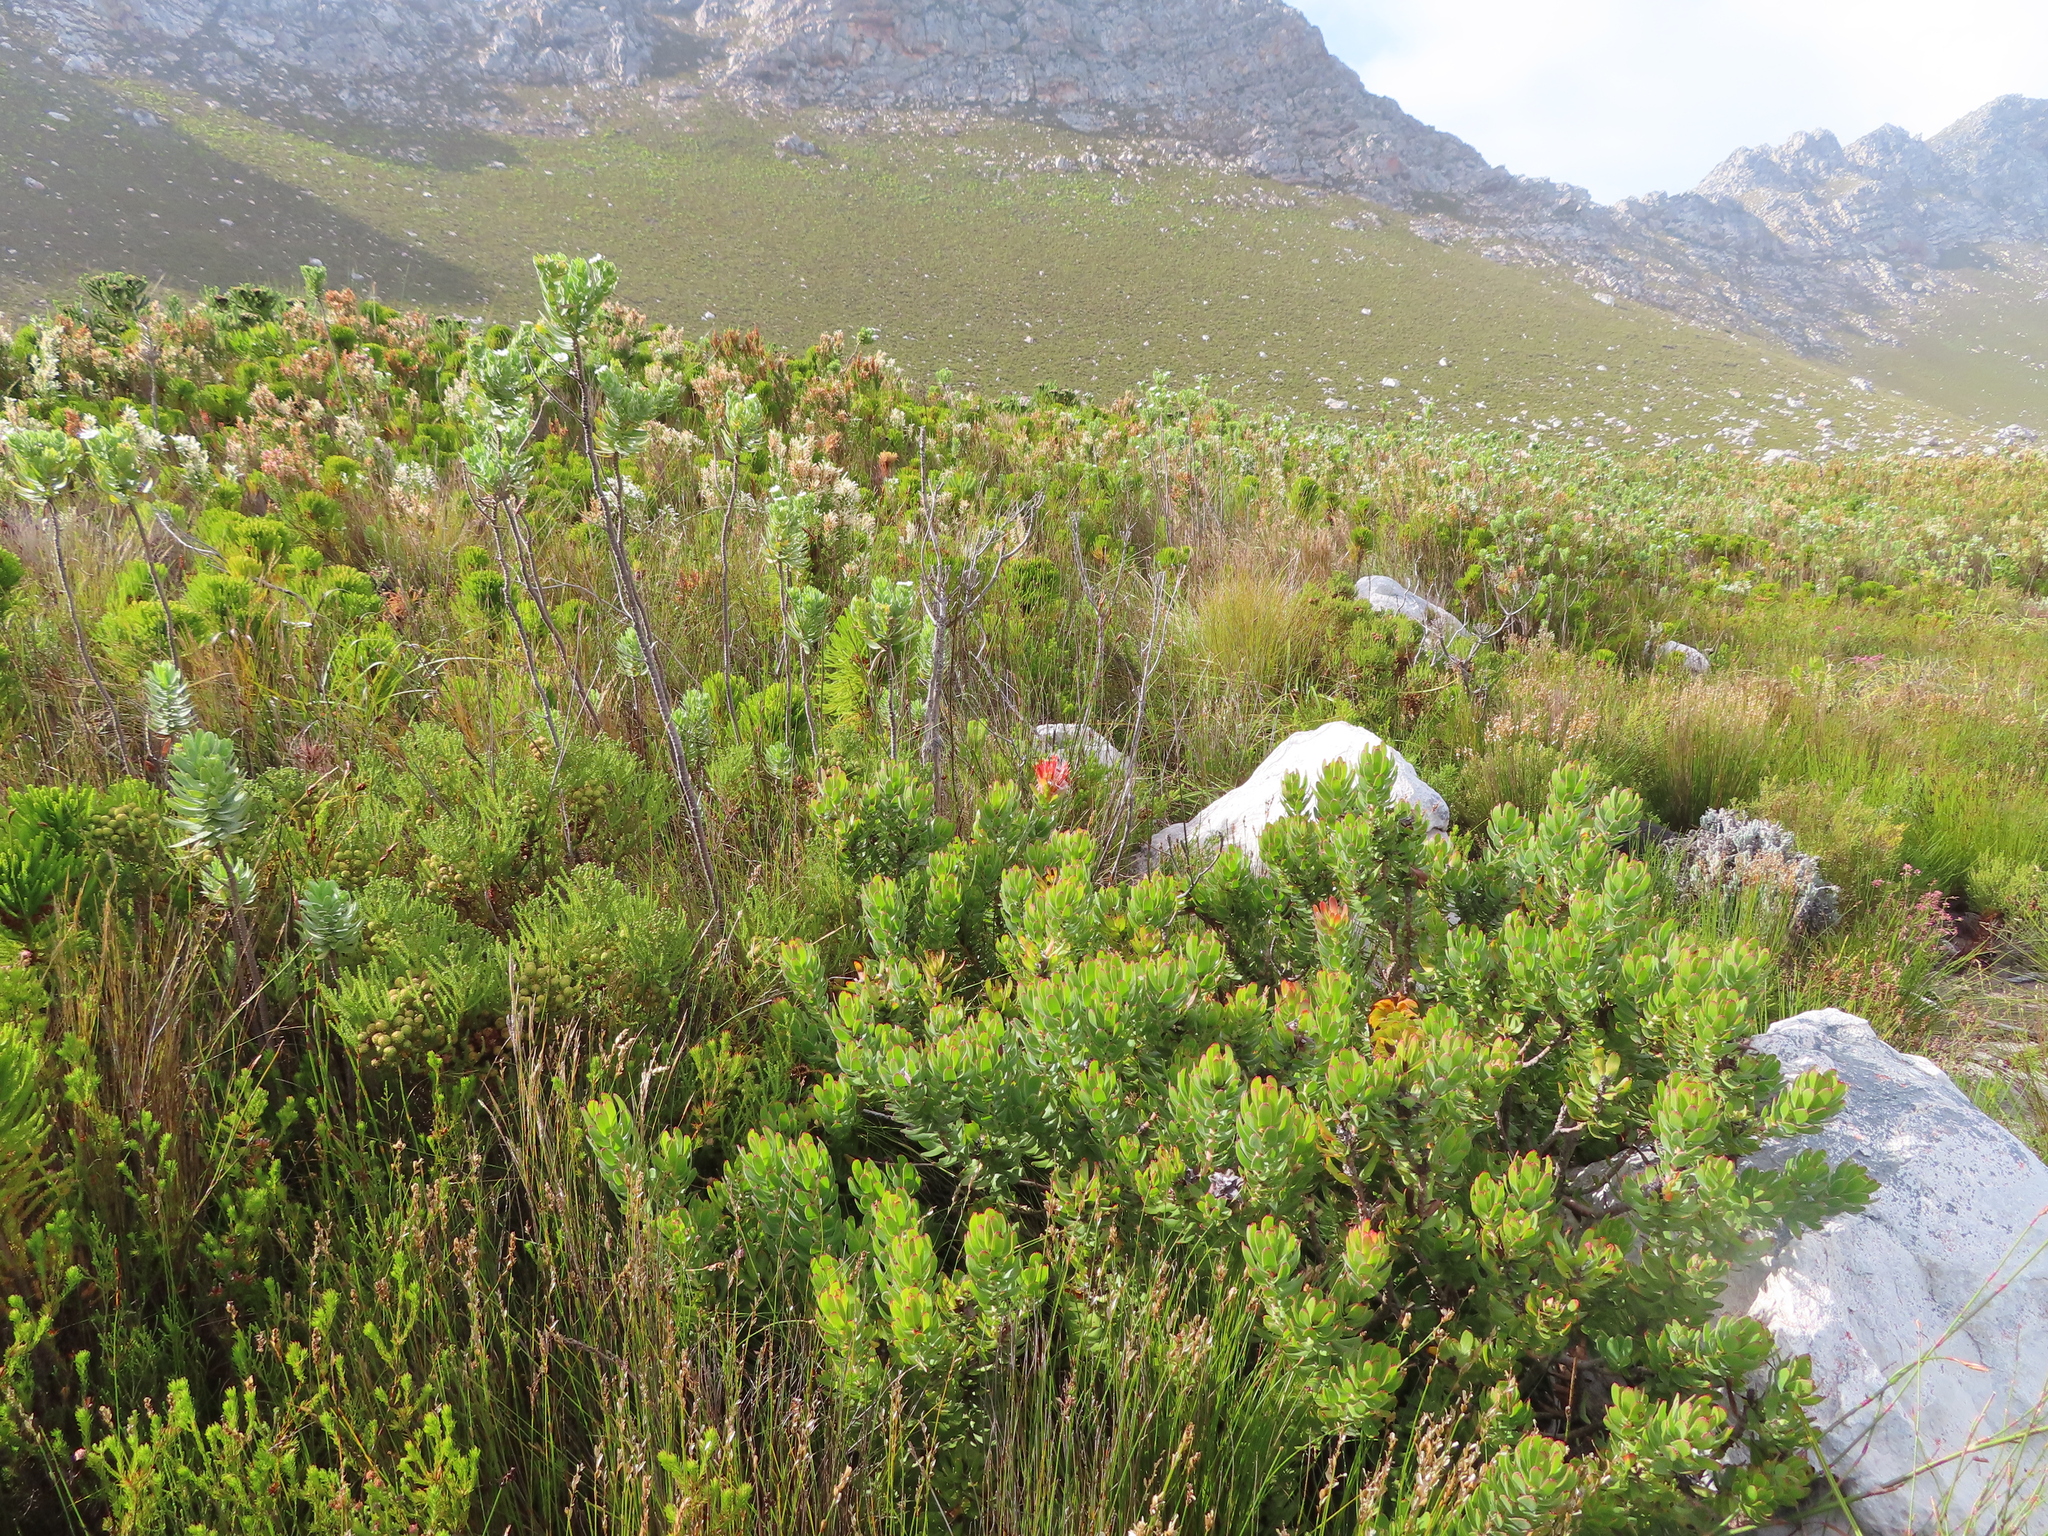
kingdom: Plantae
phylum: Tracheophyta
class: Magnoliopsida
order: Proteales
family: Proteaceae
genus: Mimetes
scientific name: Mimetes cucullatus
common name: Common pagoda
